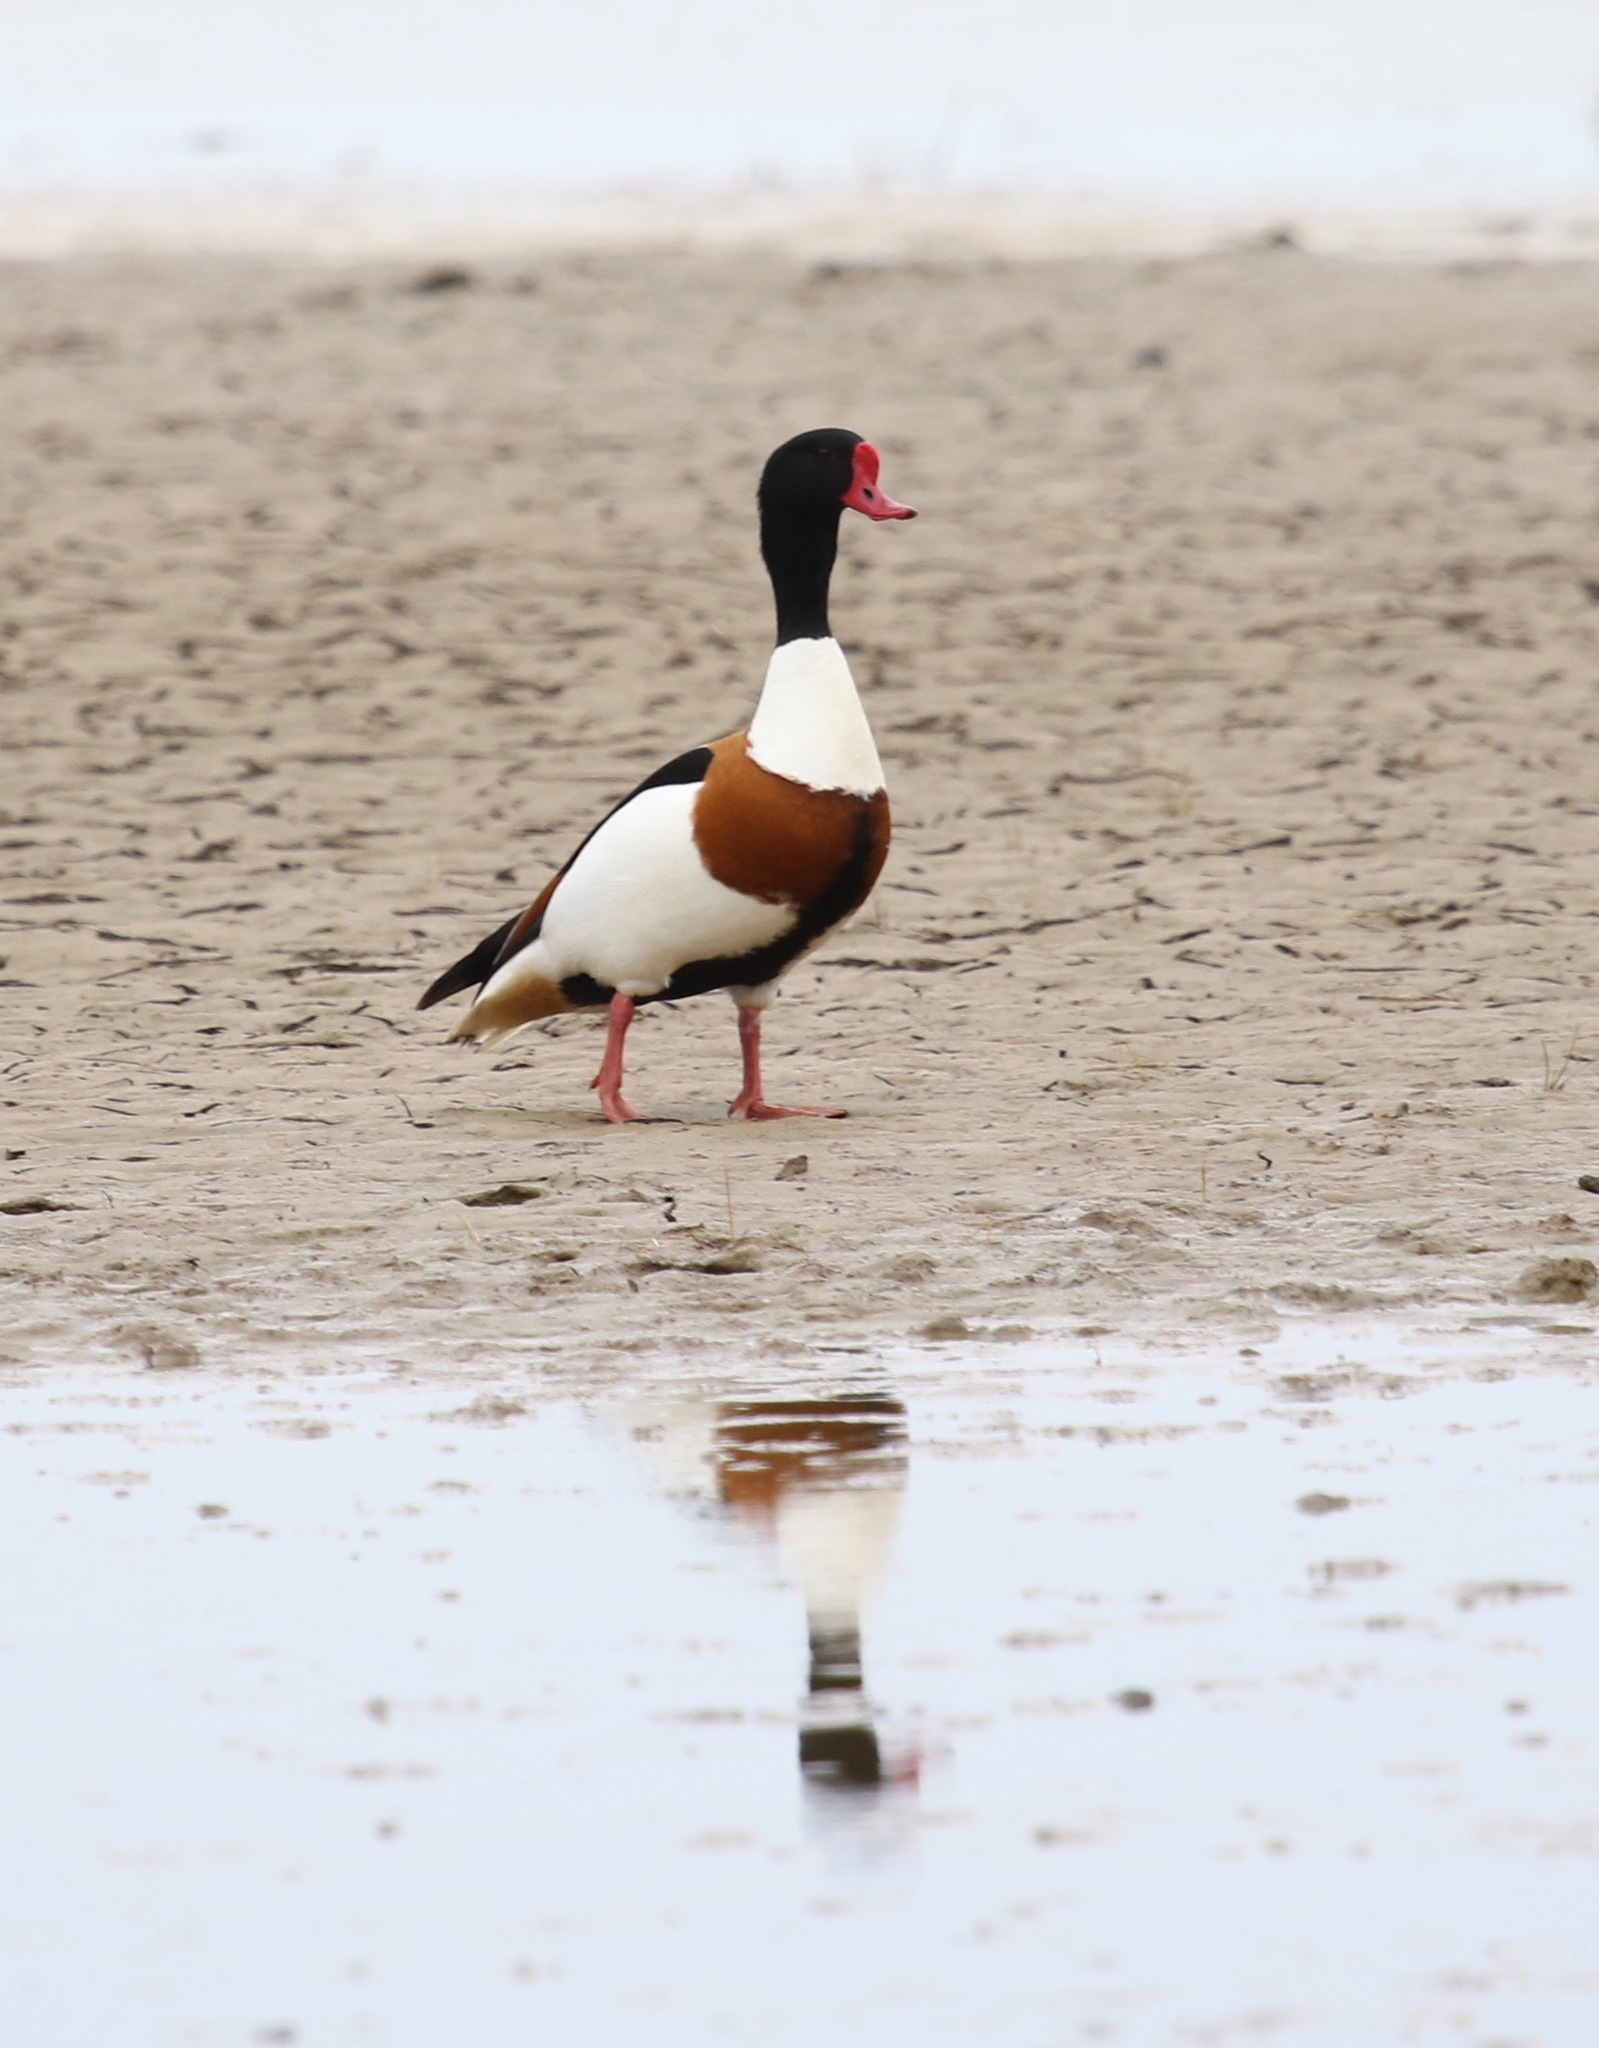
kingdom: Animalia
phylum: Chordata
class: Aves
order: Anseriformes
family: Anatidae
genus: Tadorna
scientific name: Tadorna tadorna
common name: Common shelduck
